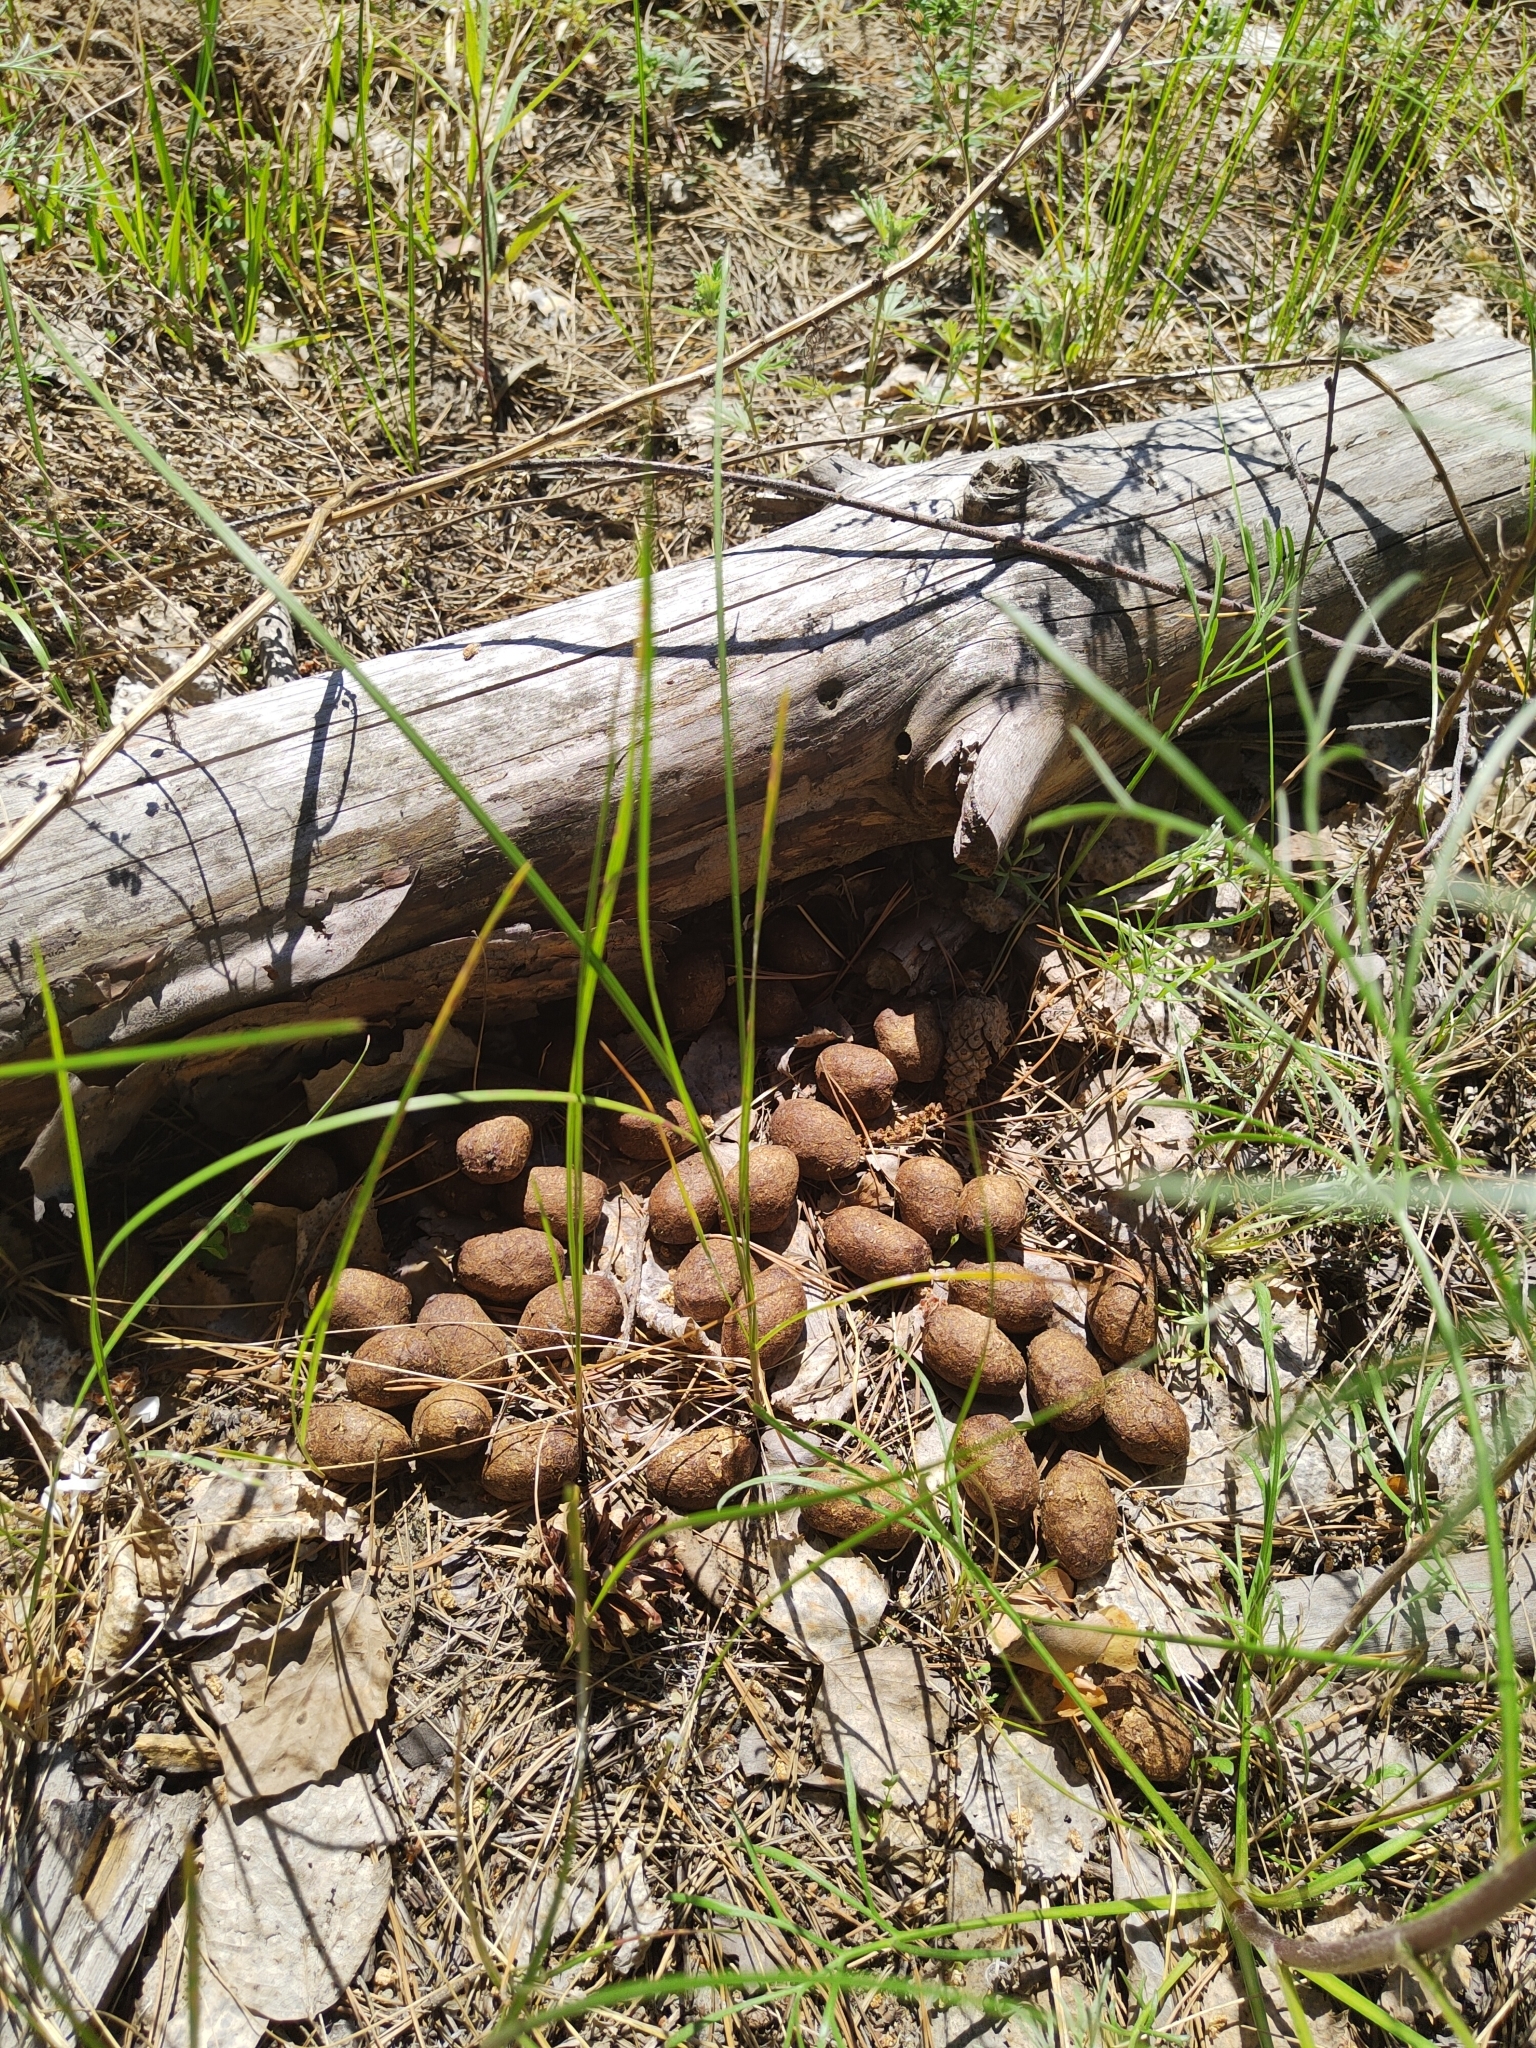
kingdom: Animalia
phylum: Chordata
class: Mammalia
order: Artiodactyla
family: Cervidae
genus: Alces
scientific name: Alces alces
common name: Moose
